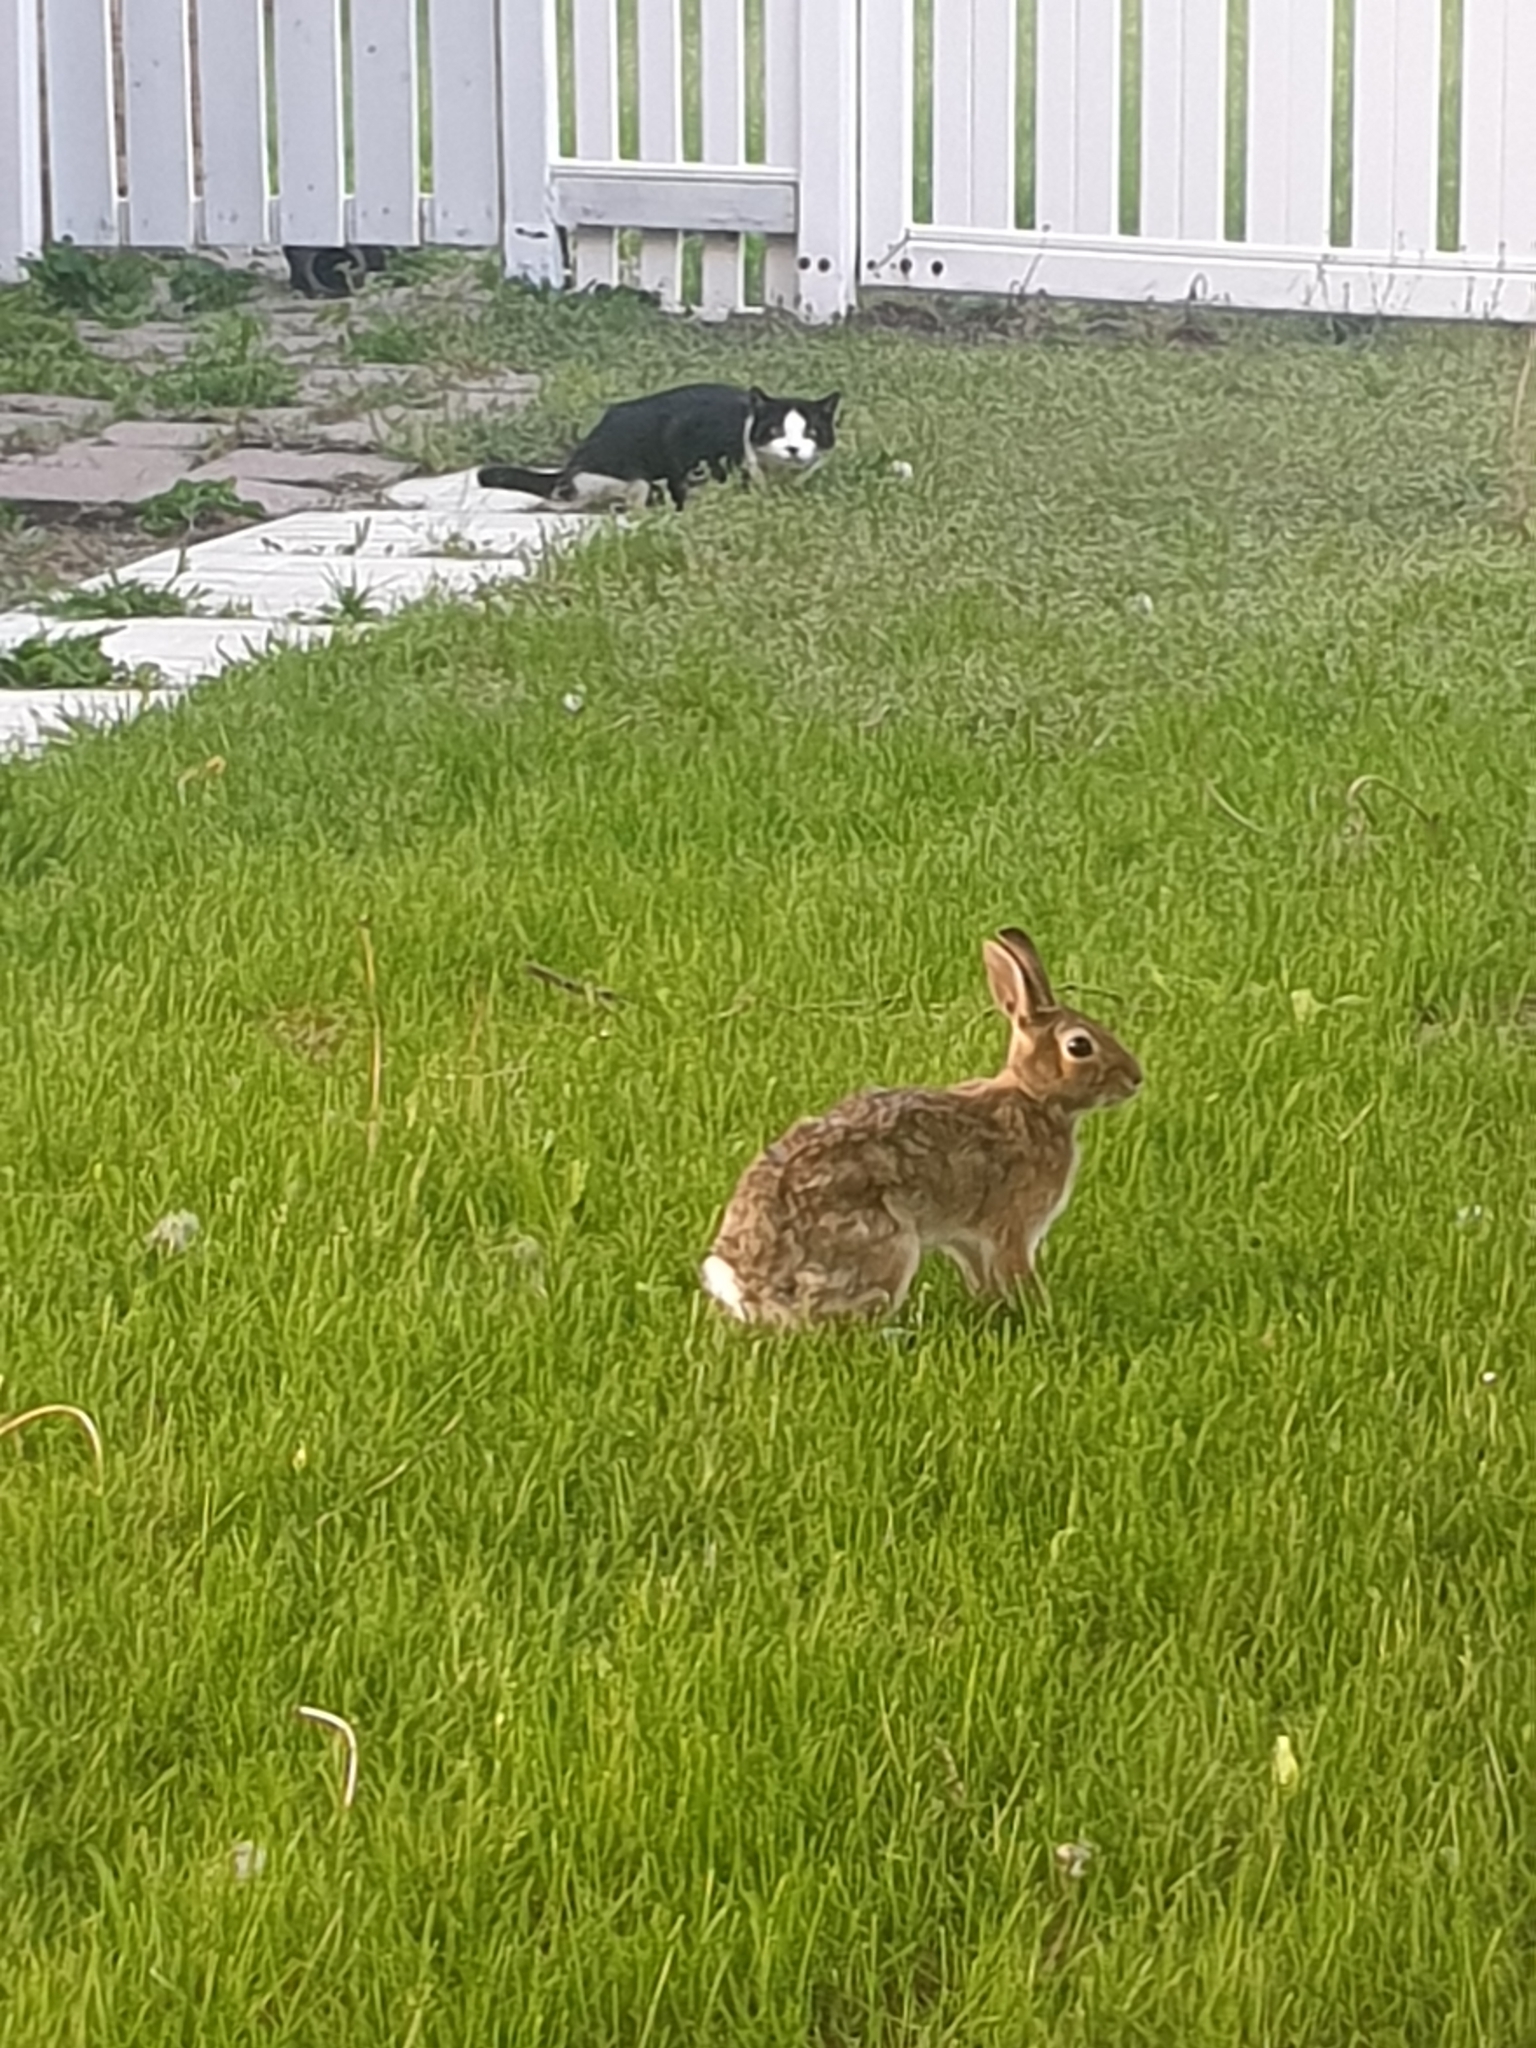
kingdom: Animalia
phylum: Chordata
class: Mammalia
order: Lagomorpha
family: Leporidae
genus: Sylvilagus
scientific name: Sylvilagus floridanus
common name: Eastern cottontail
